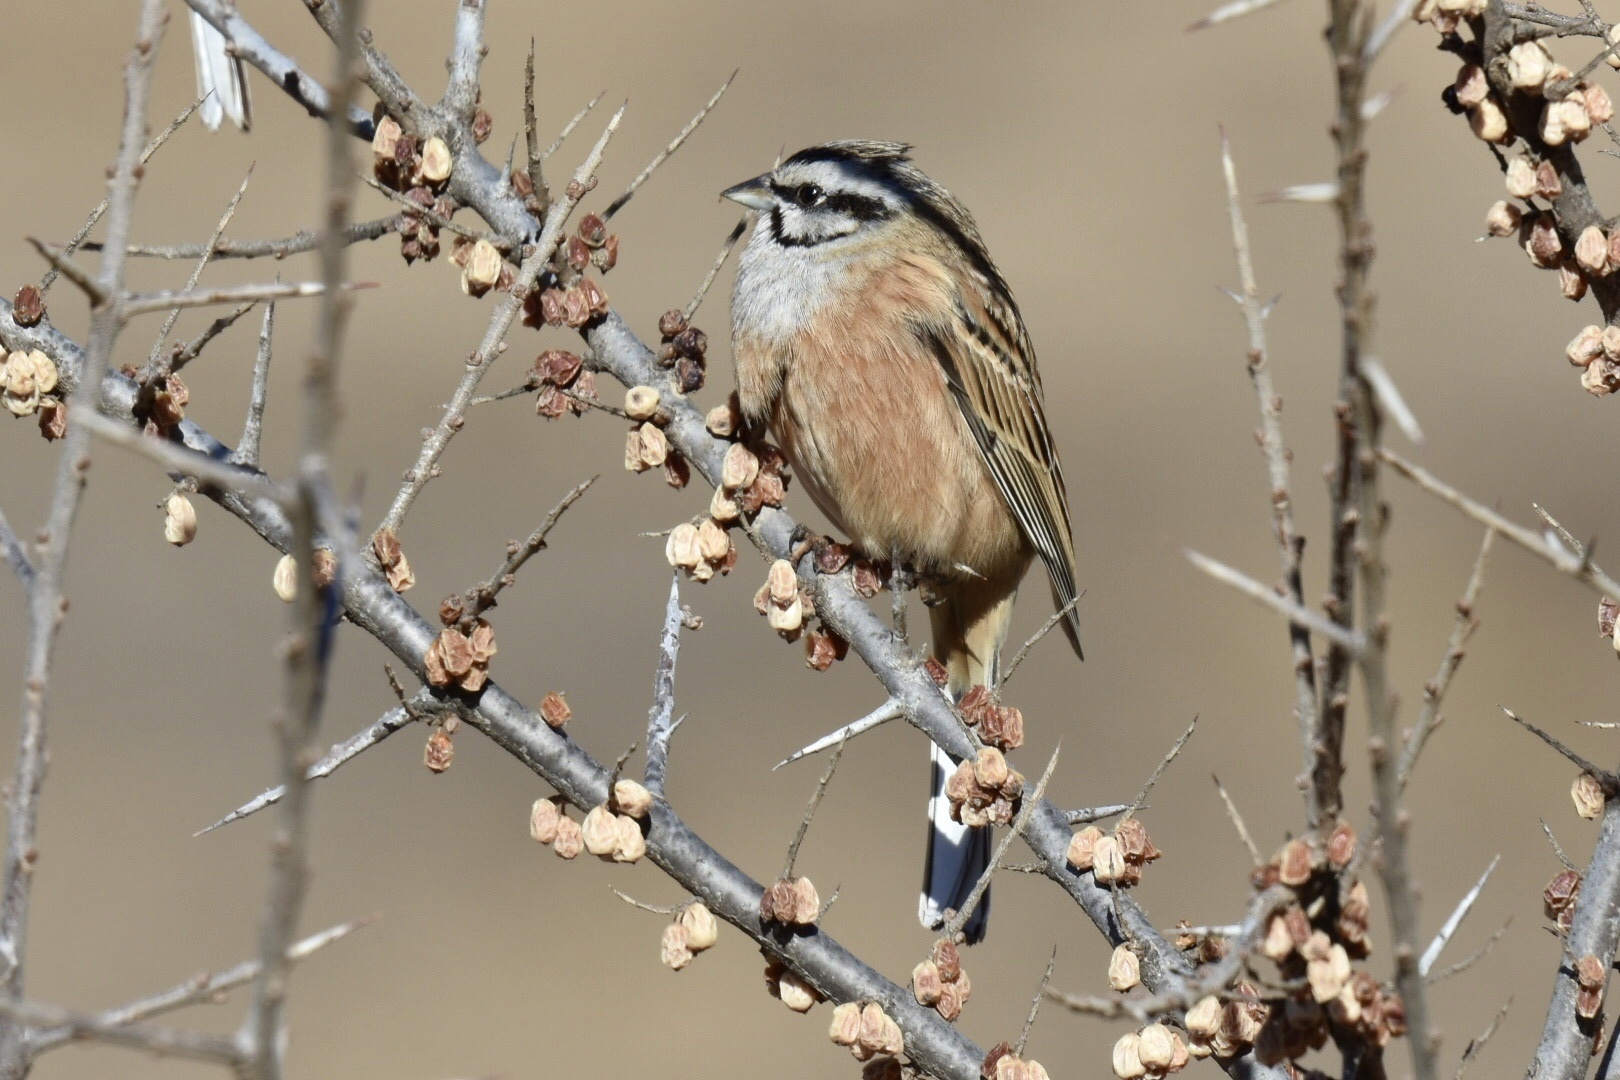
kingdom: Animalia
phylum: Chordata
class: Aves
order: Passeriformes
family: Emberizidae
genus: Emberiza
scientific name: Emberiza cia
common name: Rock bunting
